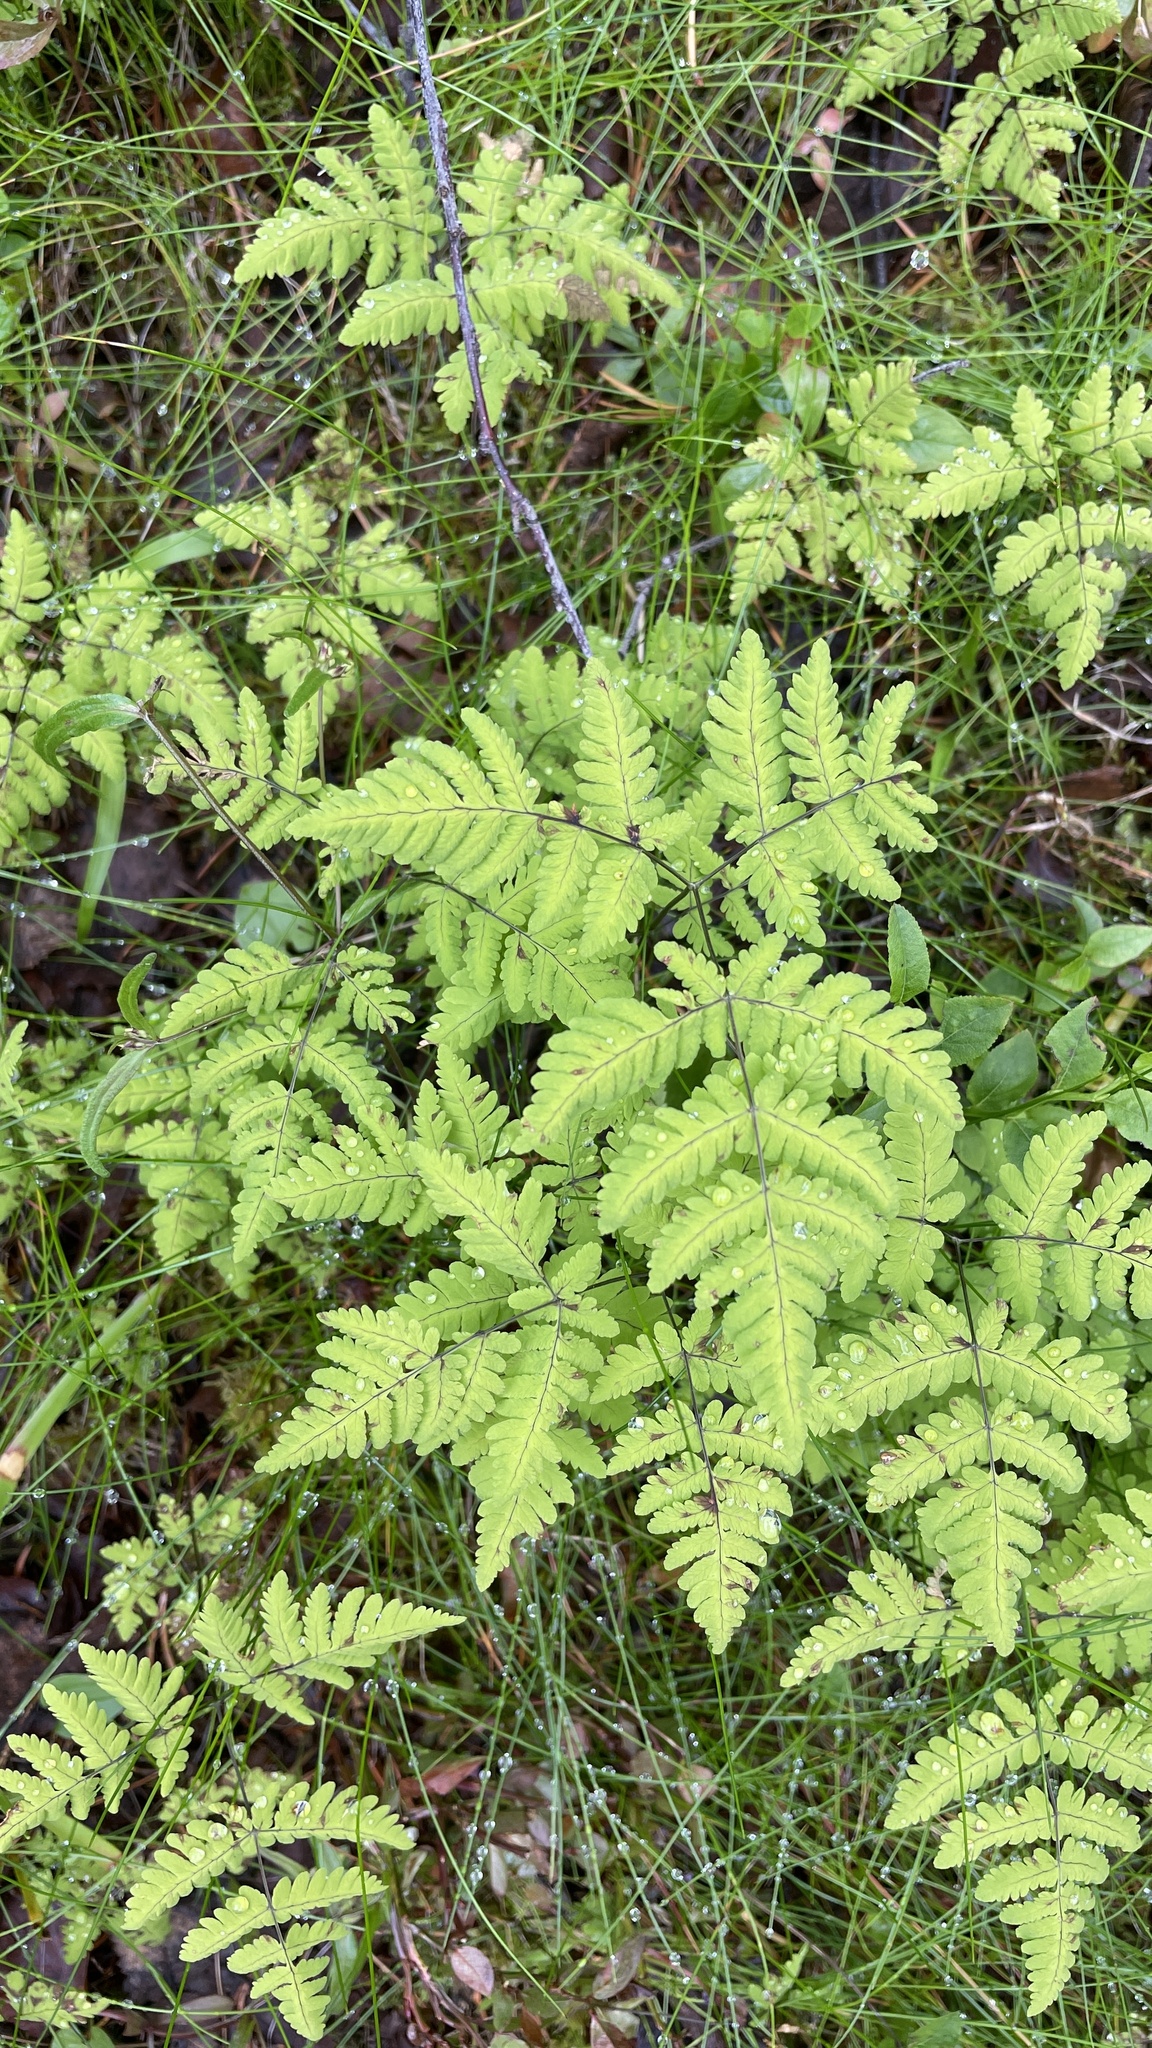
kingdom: Plantae
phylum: Tracheophyta
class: Polypodiopsida
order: Polypodiales
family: Cystopteridaceae
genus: Gymnocarpium
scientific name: Gymnocarpium dryopteris
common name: Oak fern
